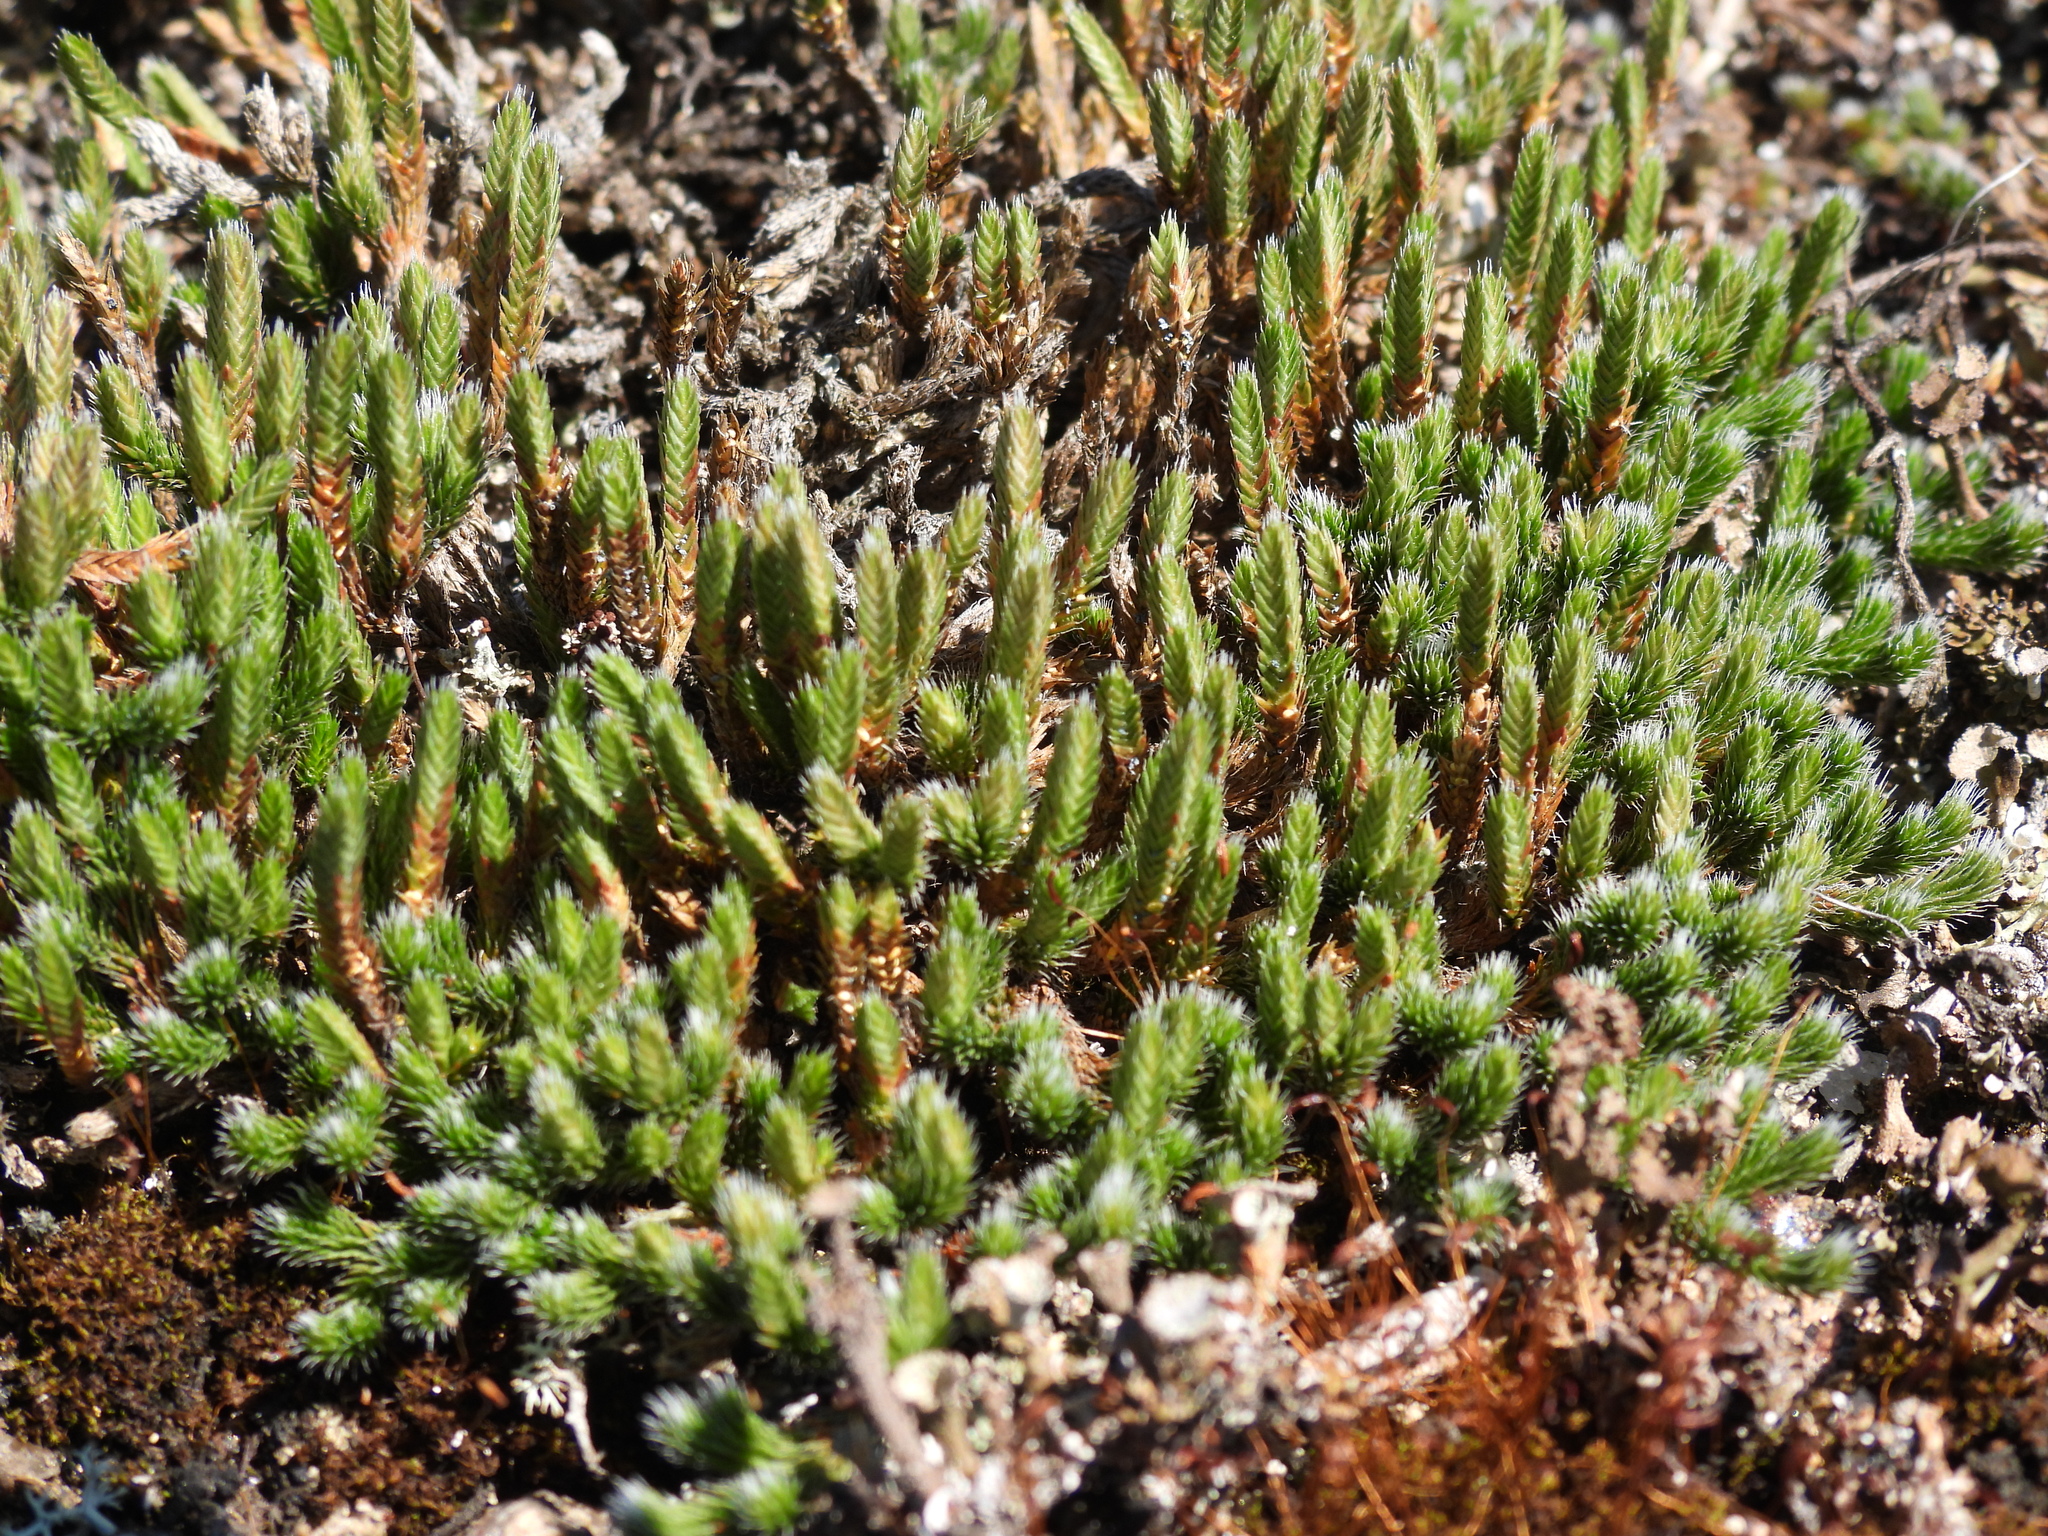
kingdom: Plantae
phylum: Tracheophyta
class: Lycopodiopsida
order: Selaginellales
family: Selaginellaceae
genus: Selaginella
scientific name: Selaginella rupestris
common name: Dwarf spikemoss
